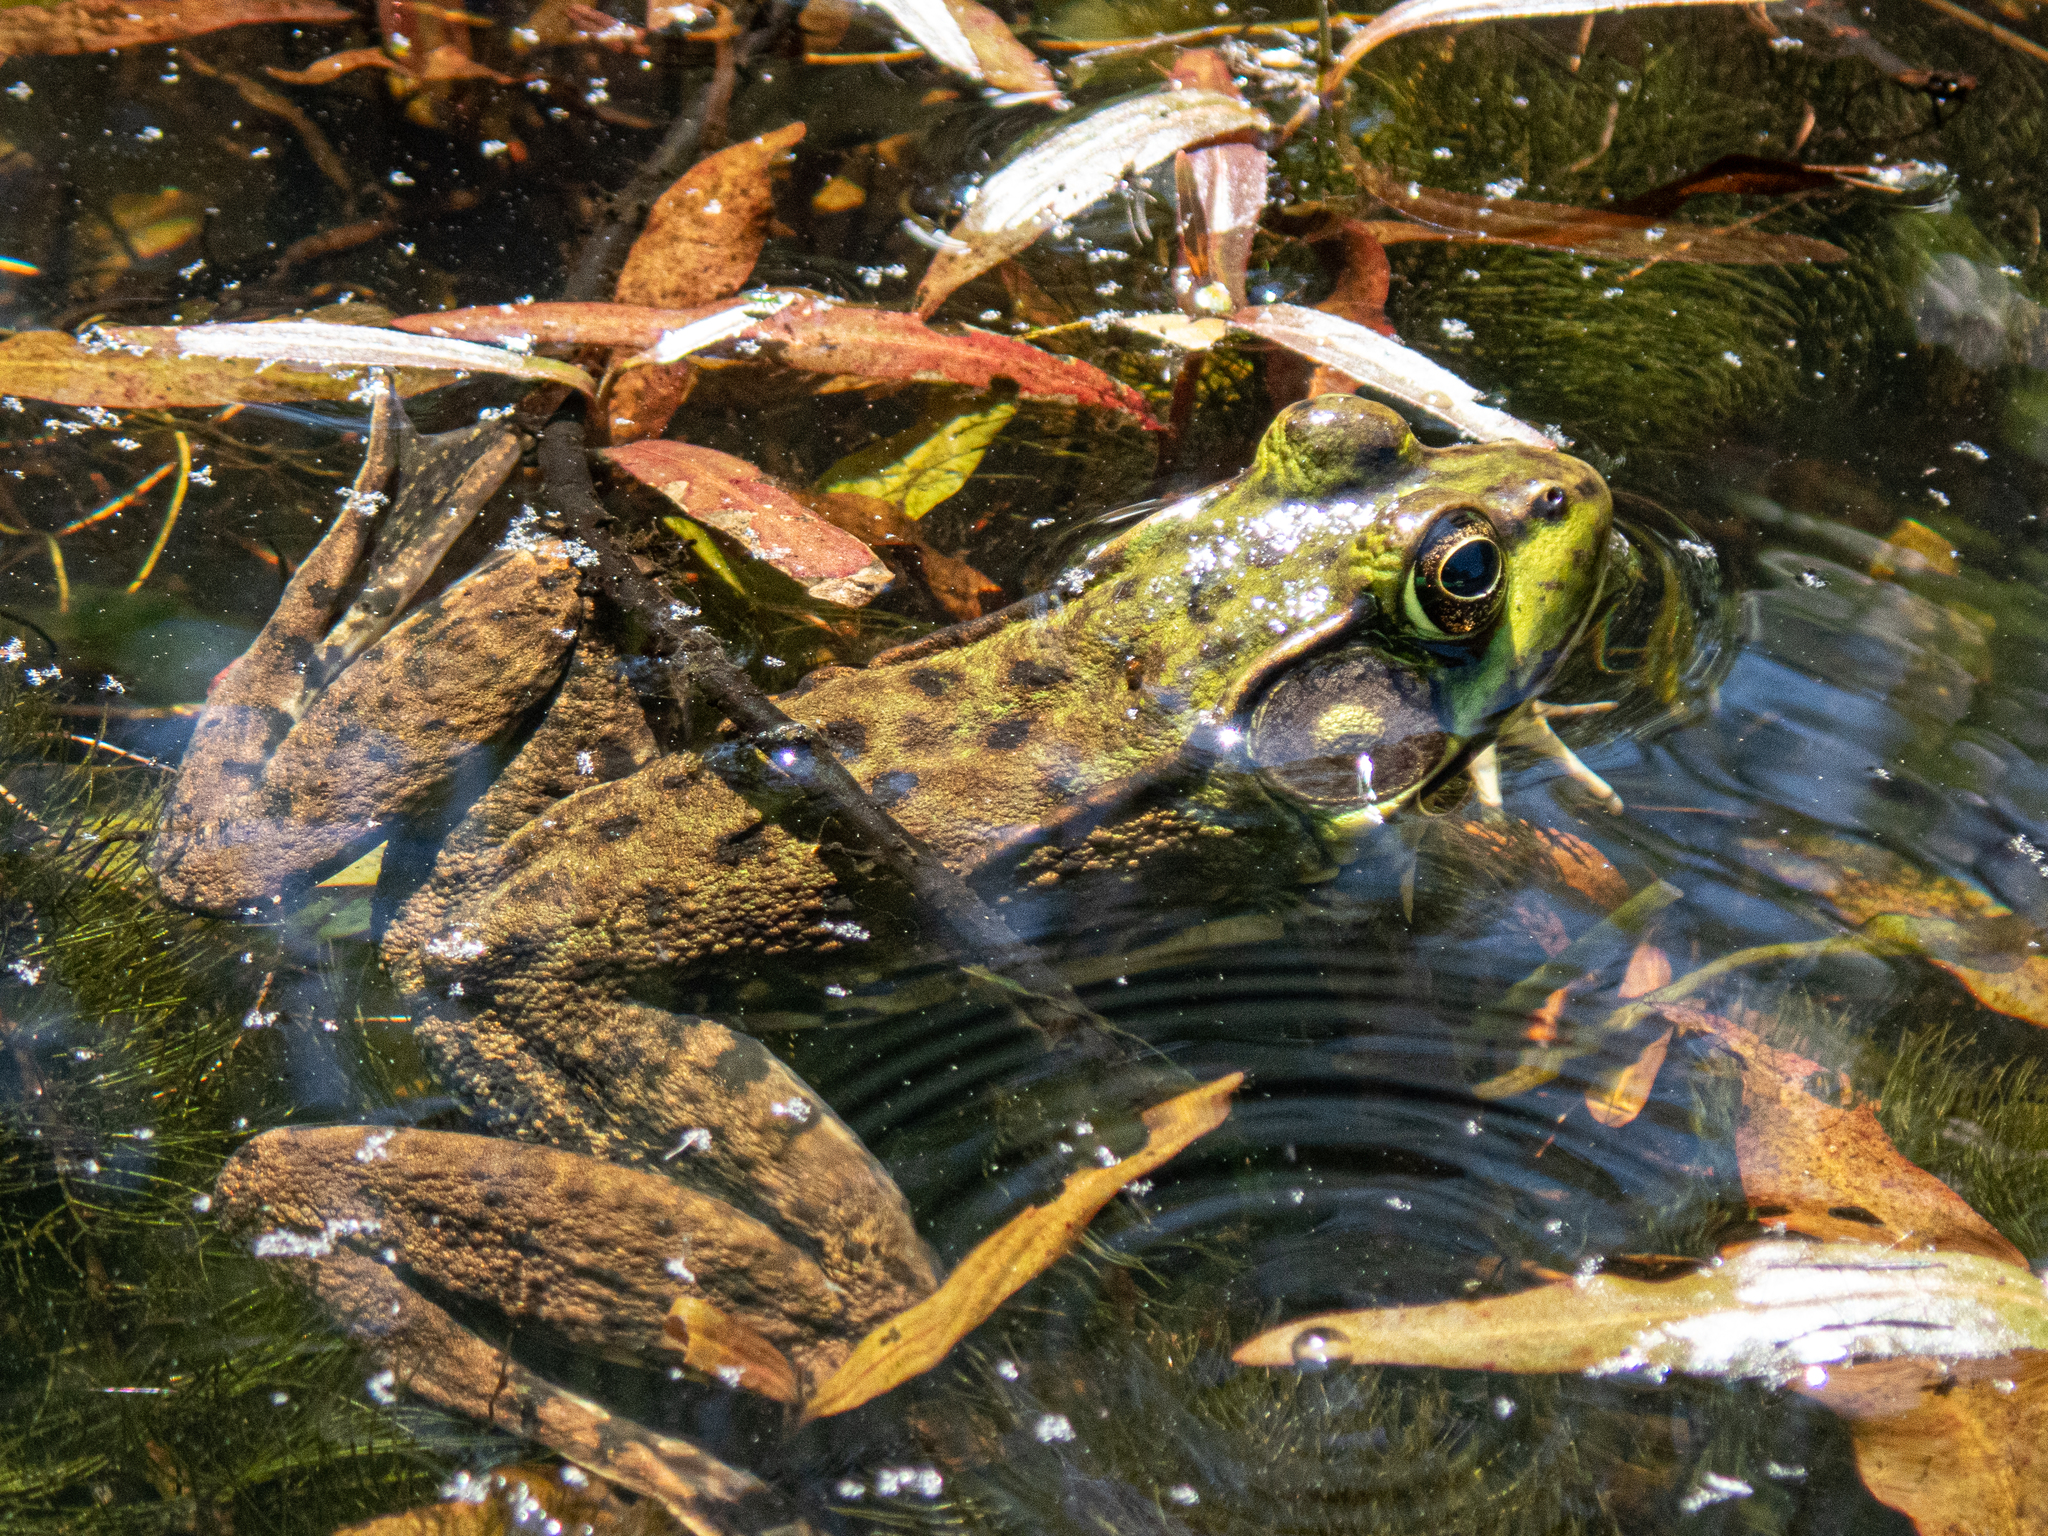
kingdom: Animalia
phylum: Chordata
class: Amphibia
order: Anura
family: Ranidae
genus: Lithobates
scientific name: Lithobates clamitans
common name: Green frog
